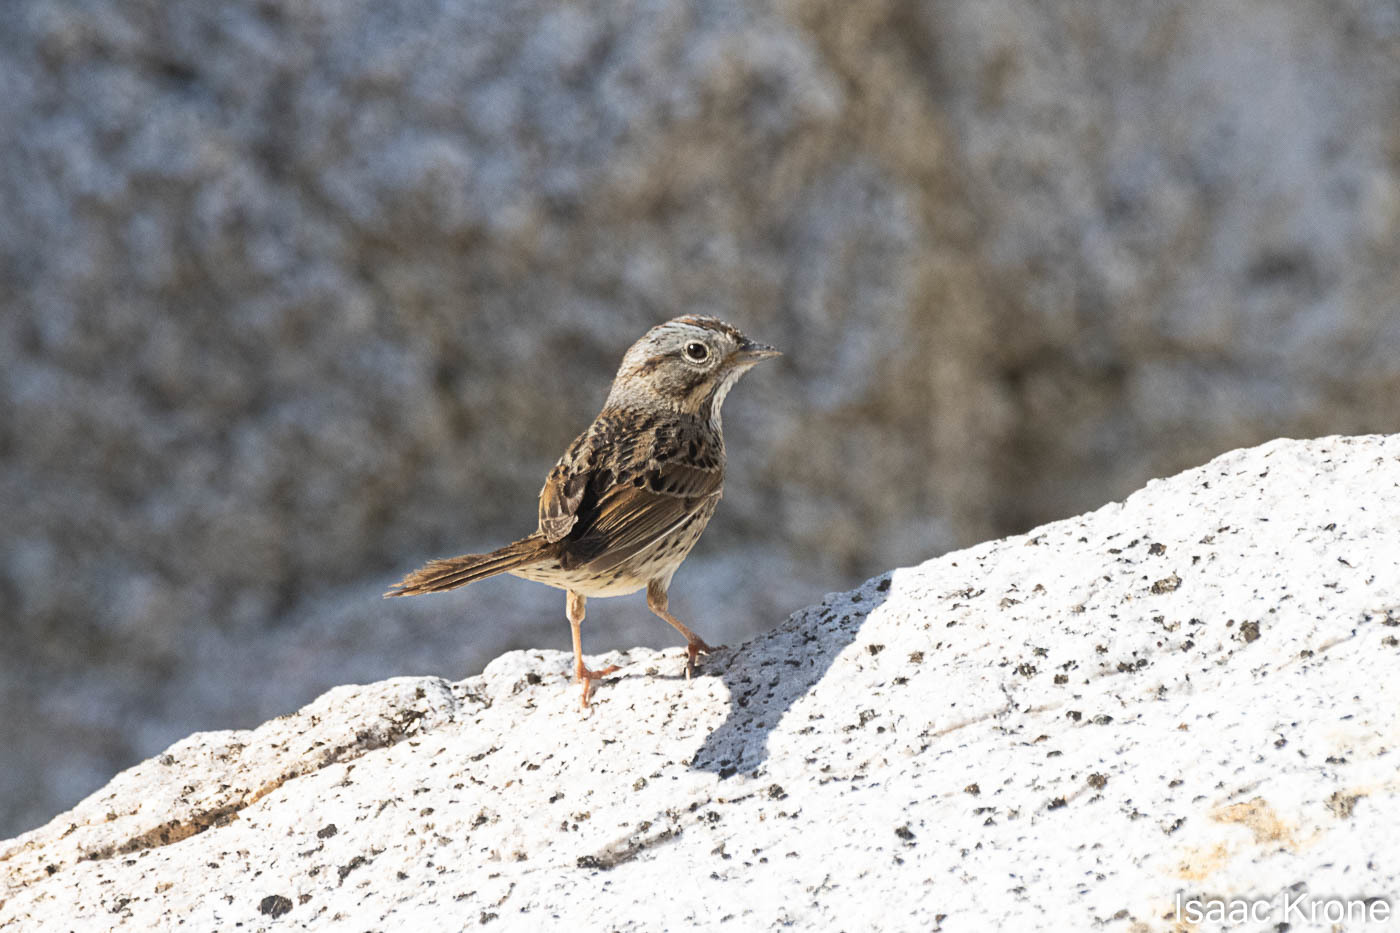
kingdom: Animalia
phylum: Chordata
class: Aves
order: Passeriformes
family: Passerellidae
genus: Melospiza
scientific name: Melospiza lincolnii
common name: Lincoln's sparrow
